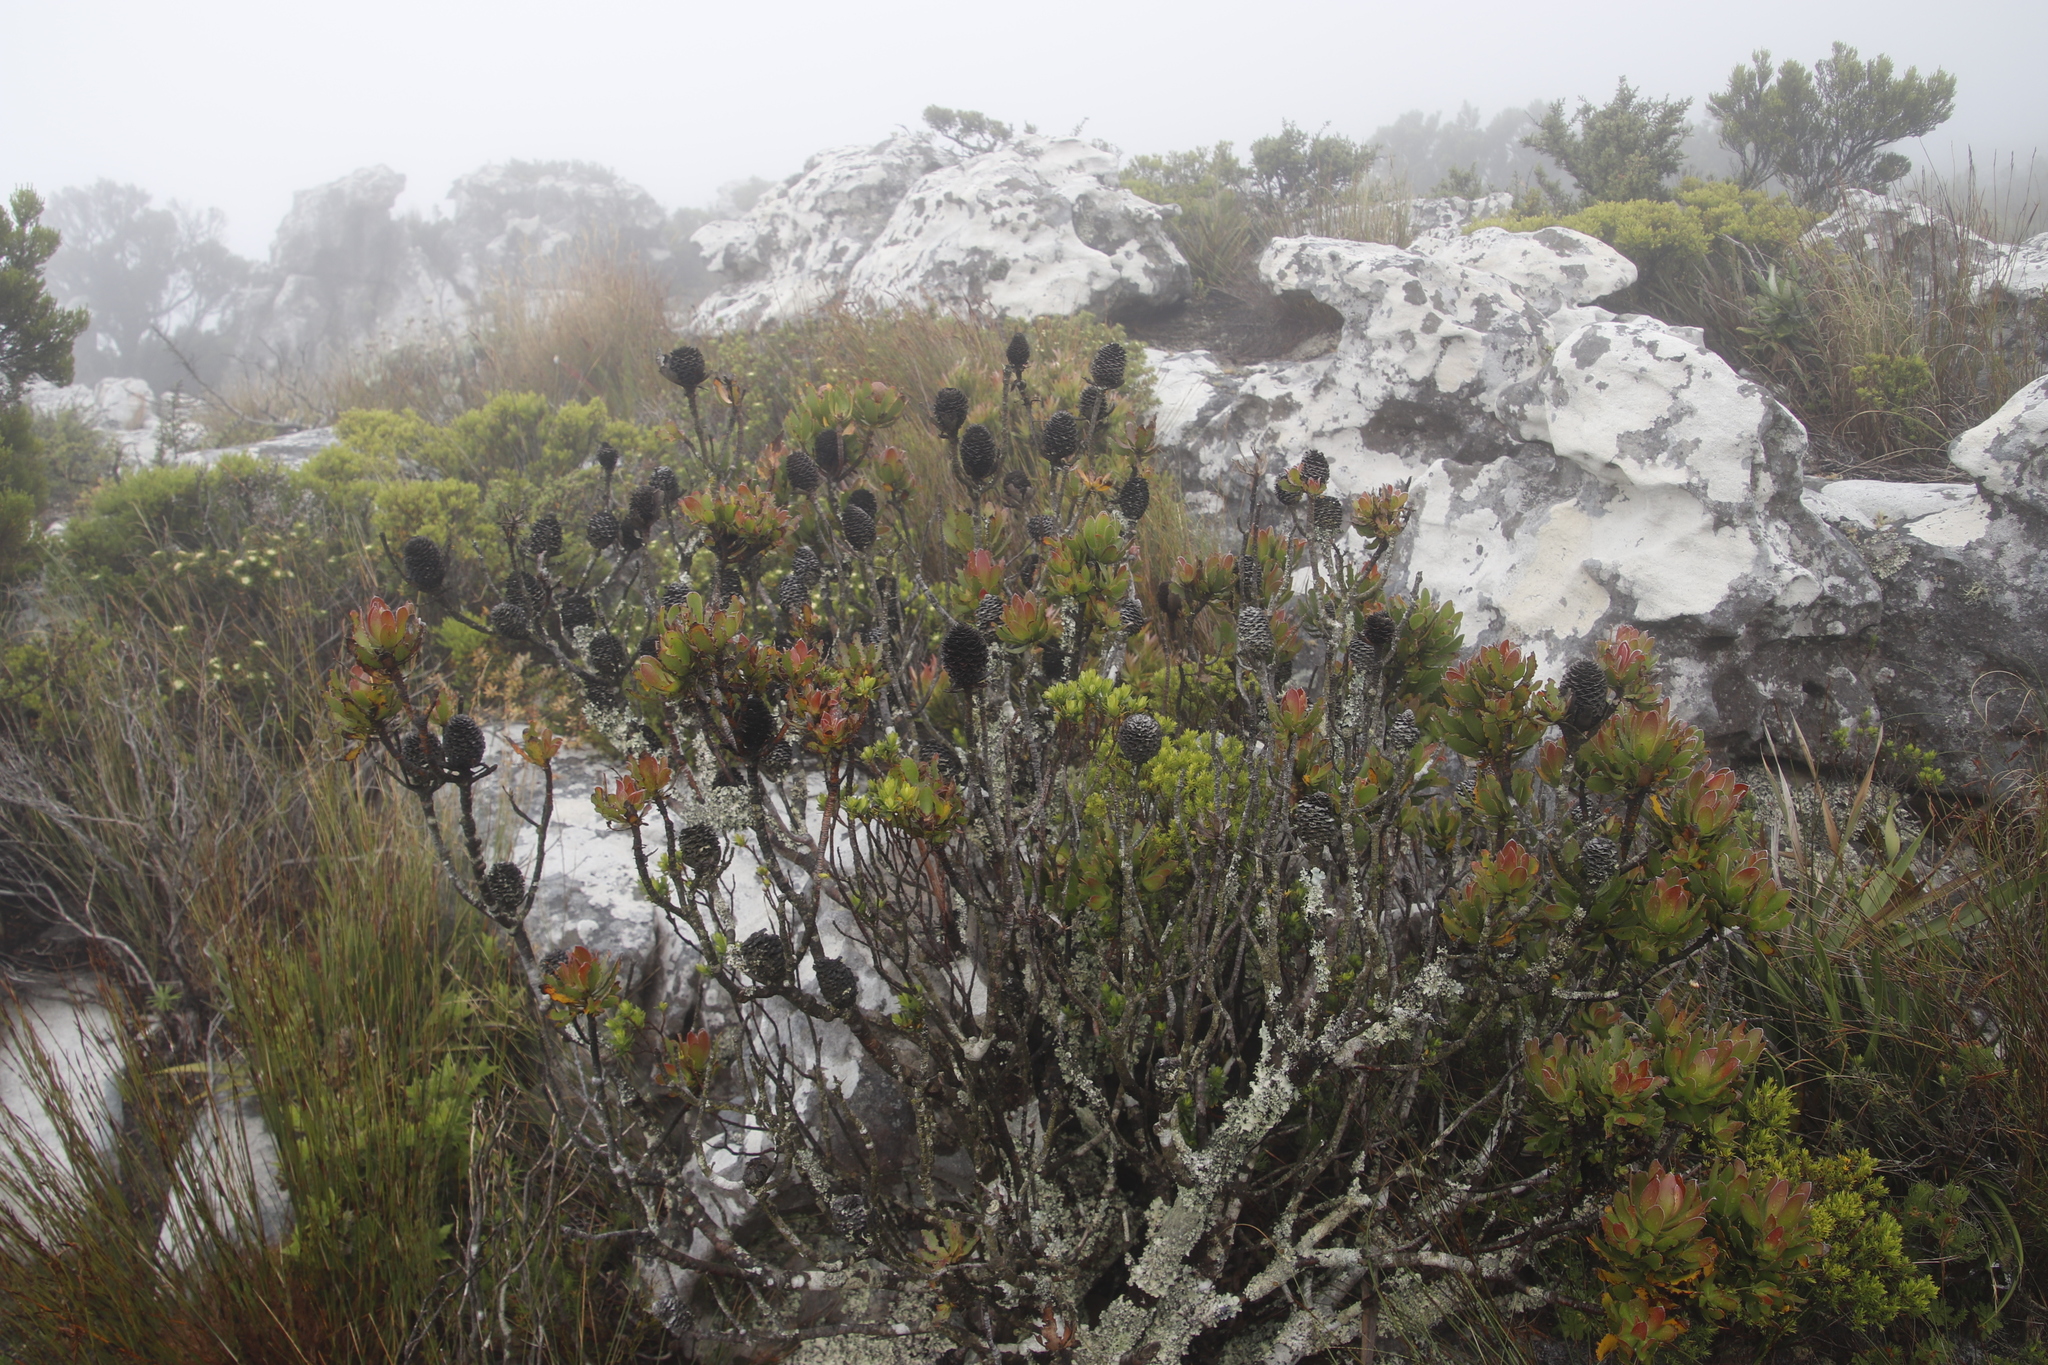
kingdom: Plantae
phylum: Tracheophyta
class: Magnoliopsida
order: Proteales
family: Proteaceae
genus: Leucadendron
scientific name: Leucadendron strobilinum
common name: Mountain rose
